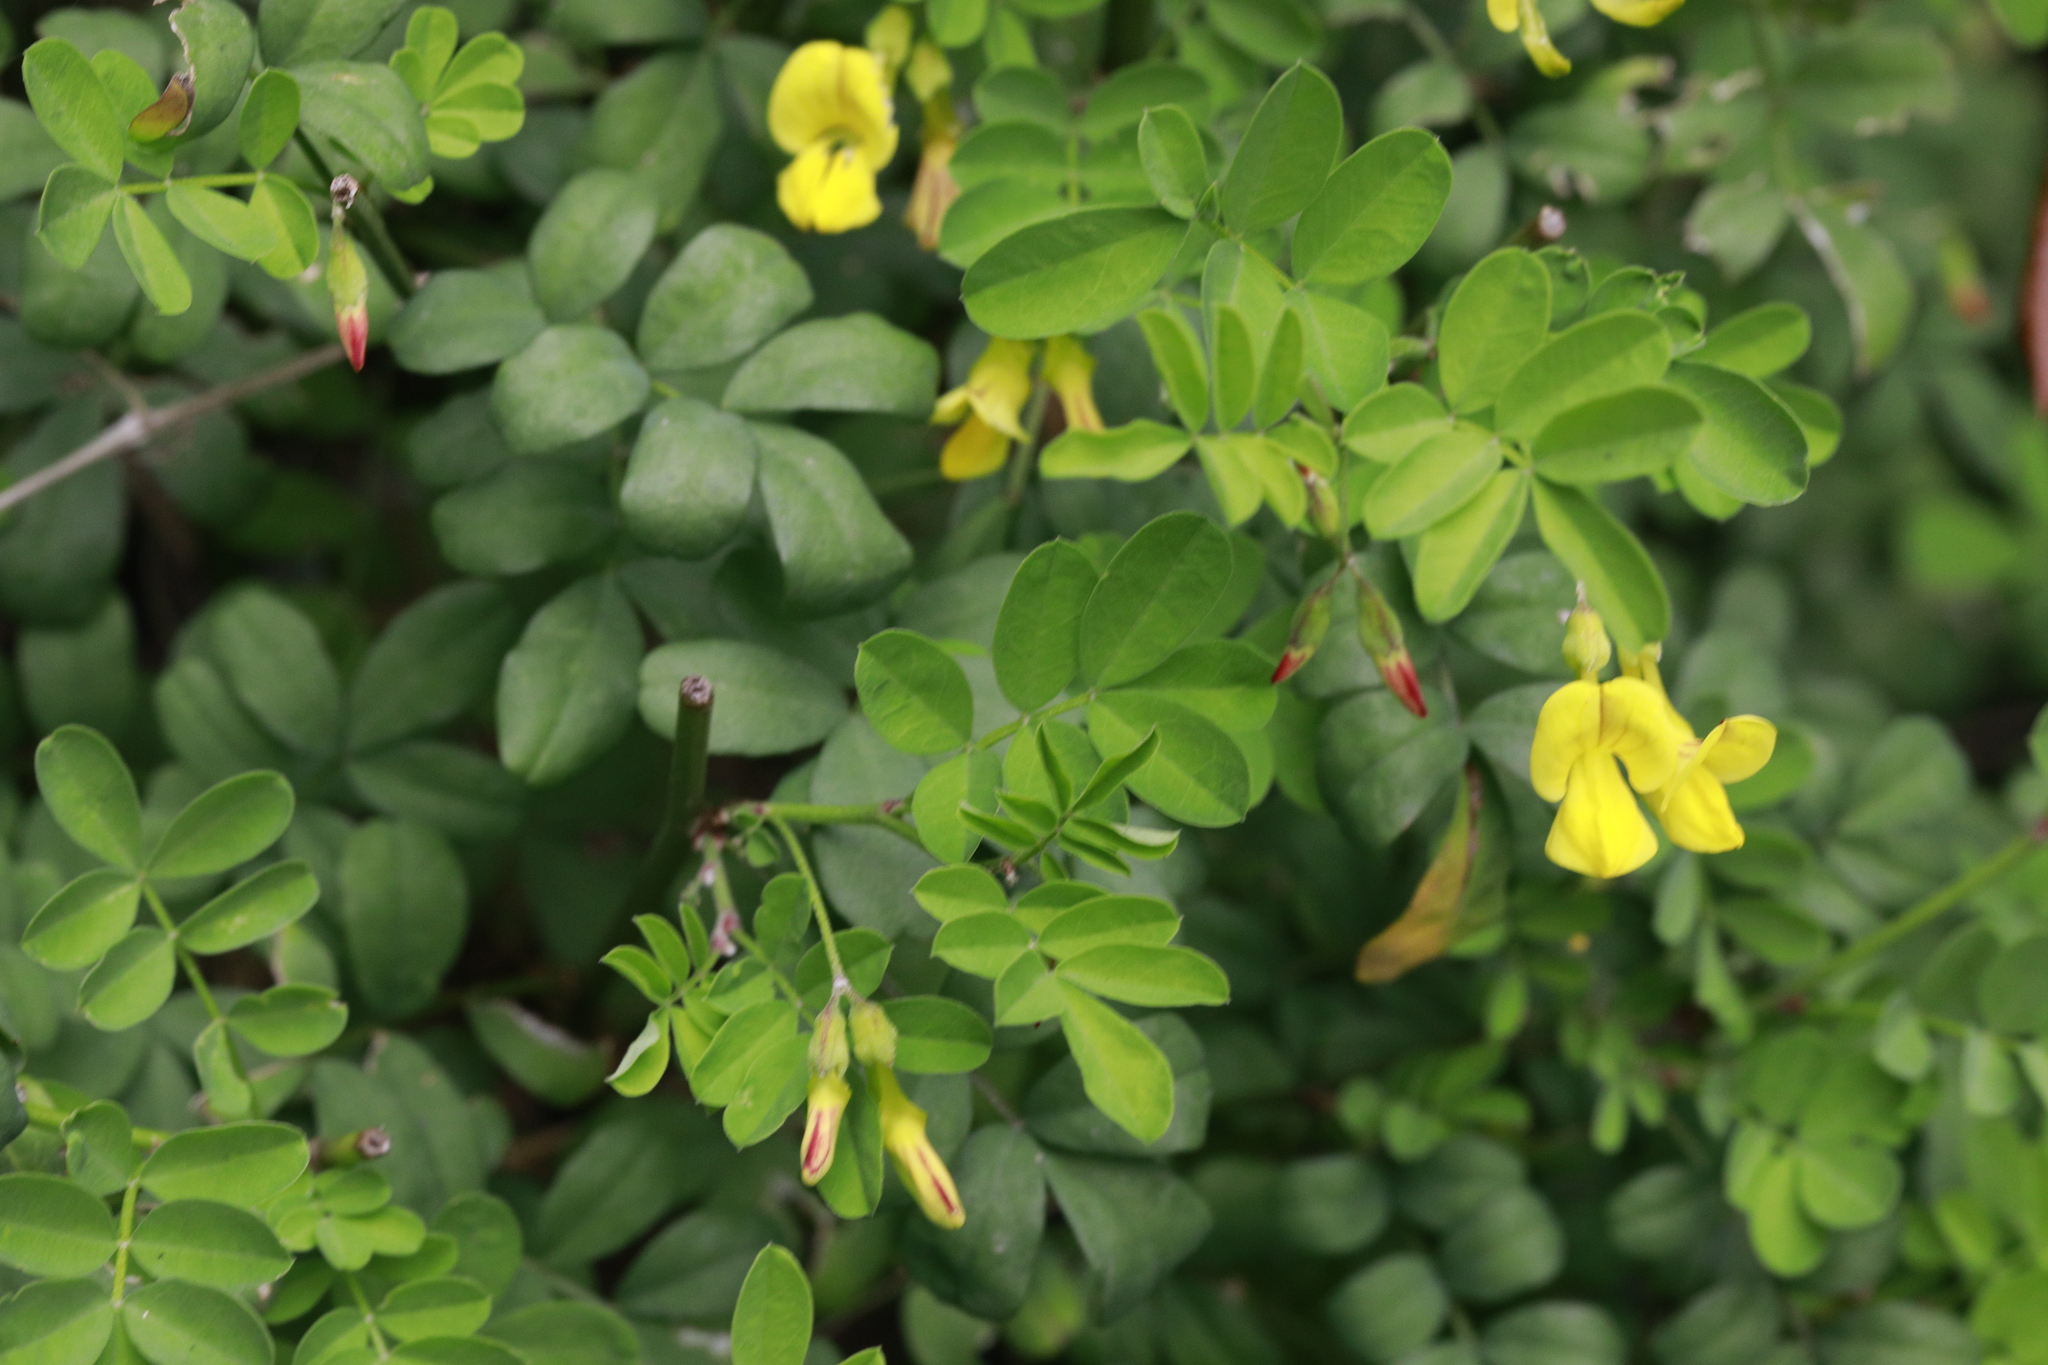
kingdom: Plantae
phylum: Tracheophyta
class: Magnoliopsida
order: Fabales
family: Fabaceae
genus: Colutea
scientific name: Colutea arborescens
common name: Bladder-senna
